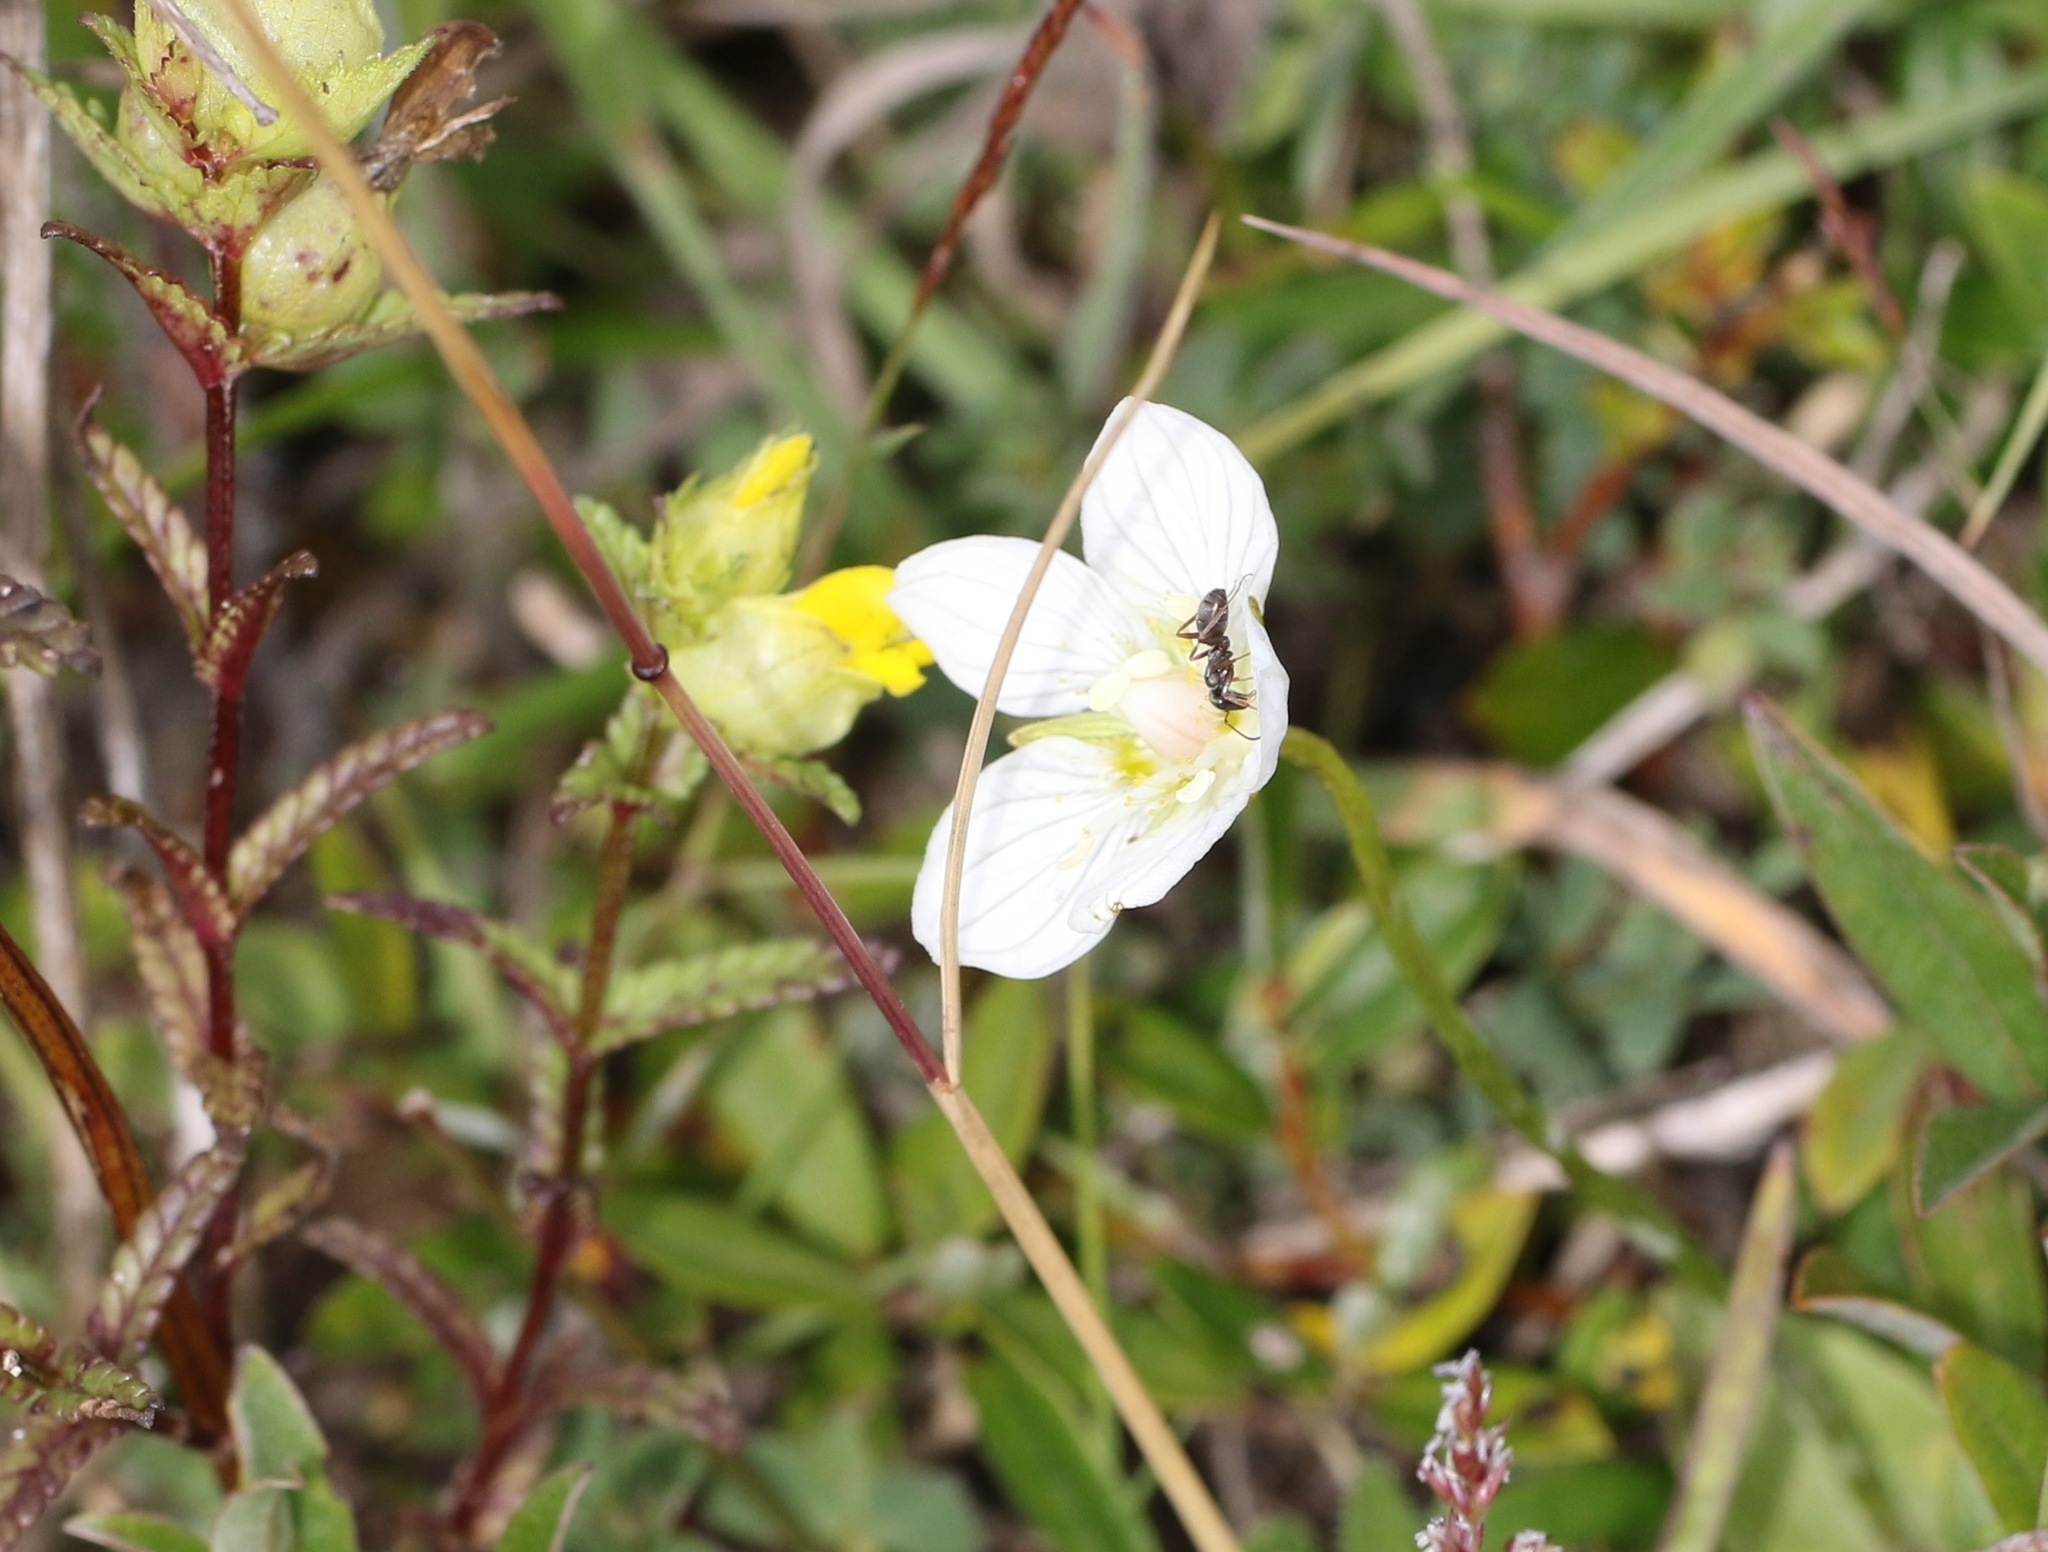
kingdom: Plantae
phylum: Tracheophyta
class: Magnoliopsida
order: Celastrales
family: Parnassiaceae
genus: Parnassia
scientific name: Parnassia palustris
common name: Grass-of-parnassus
